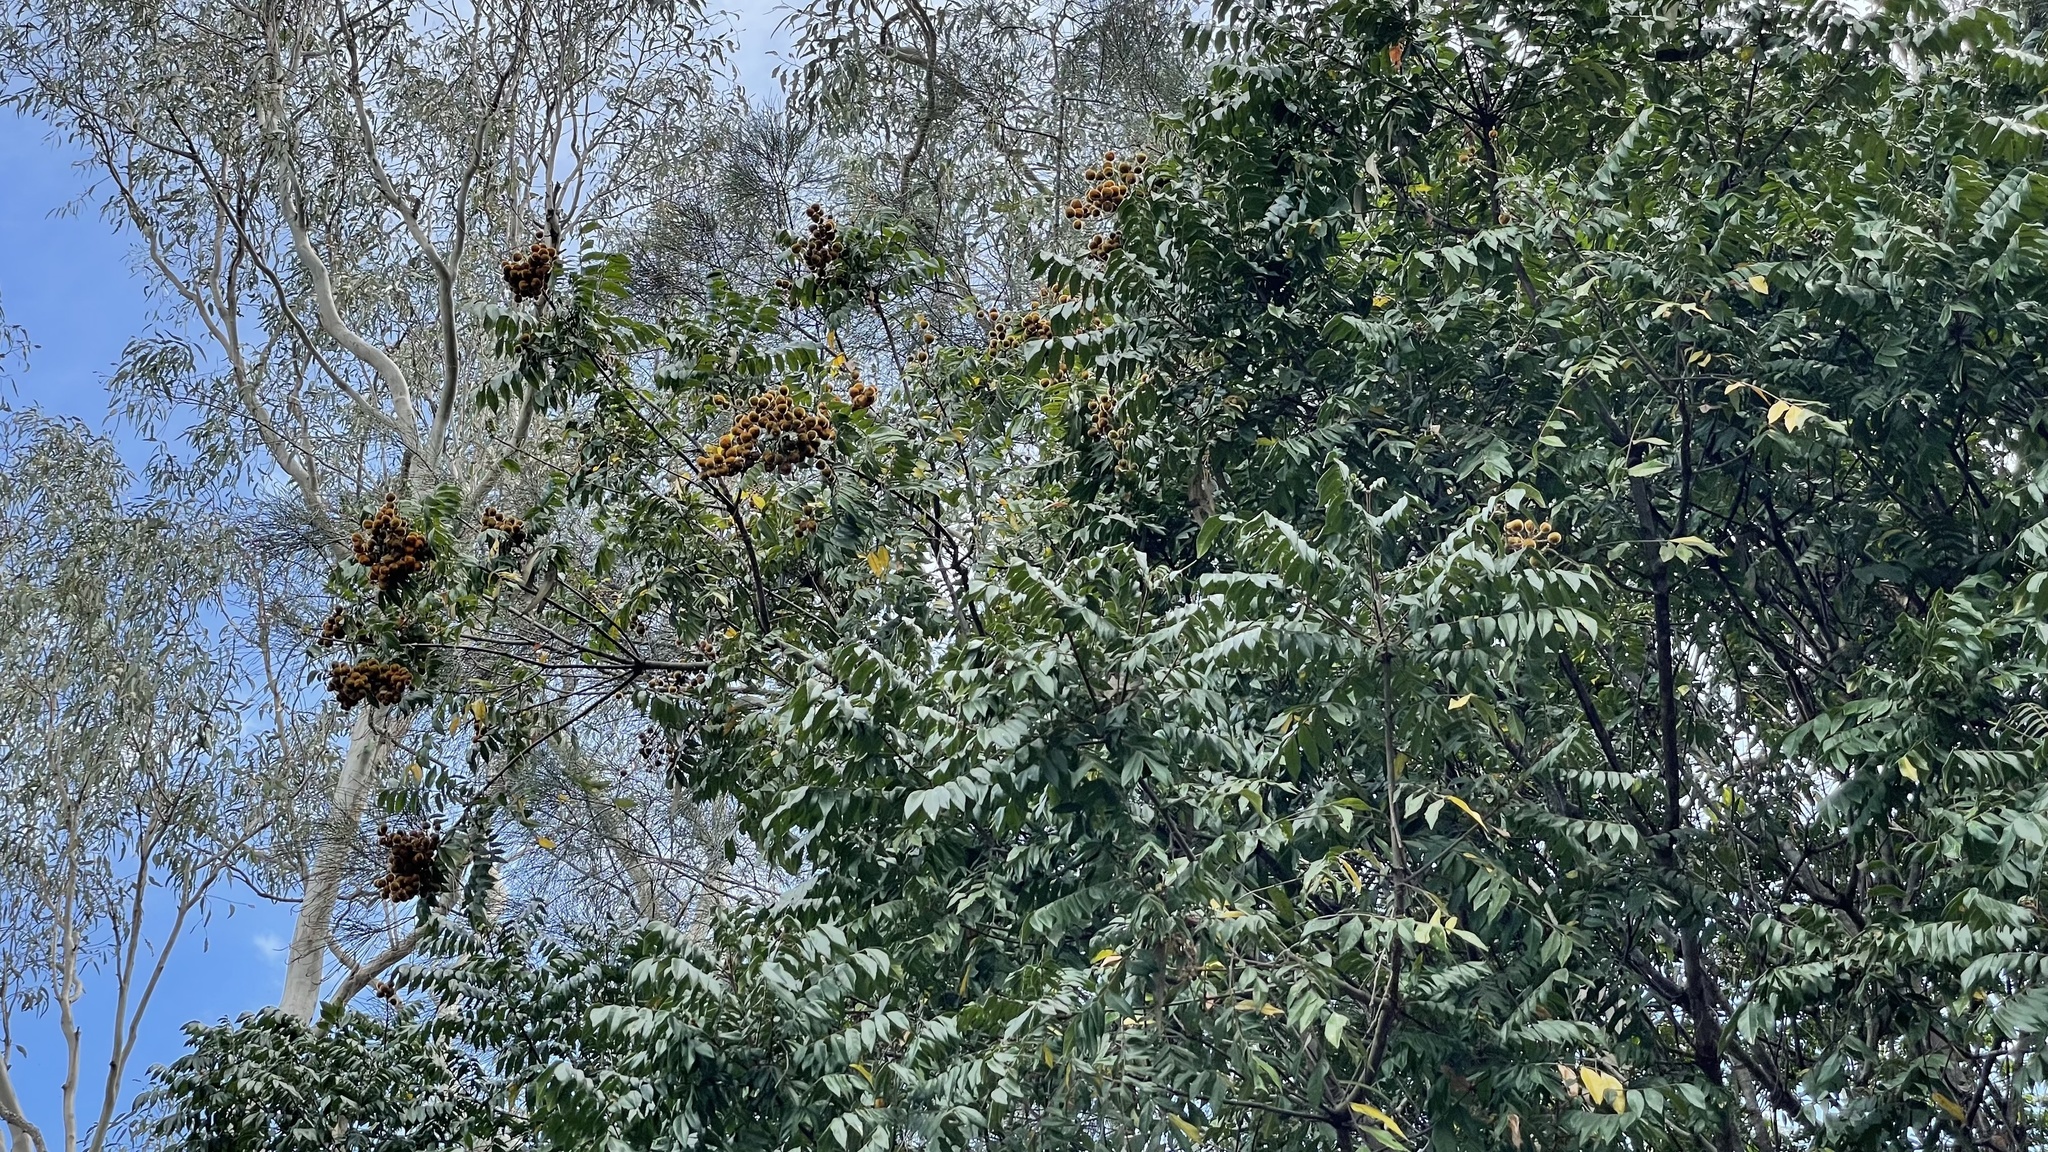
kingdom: Plantae
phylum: Tracheophyta
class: Magnoliopsida
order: Sapindales
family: Sapindaceae
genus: Jagera
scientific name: Jagera pseudorhus
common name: Fern-leaf-tamarind
